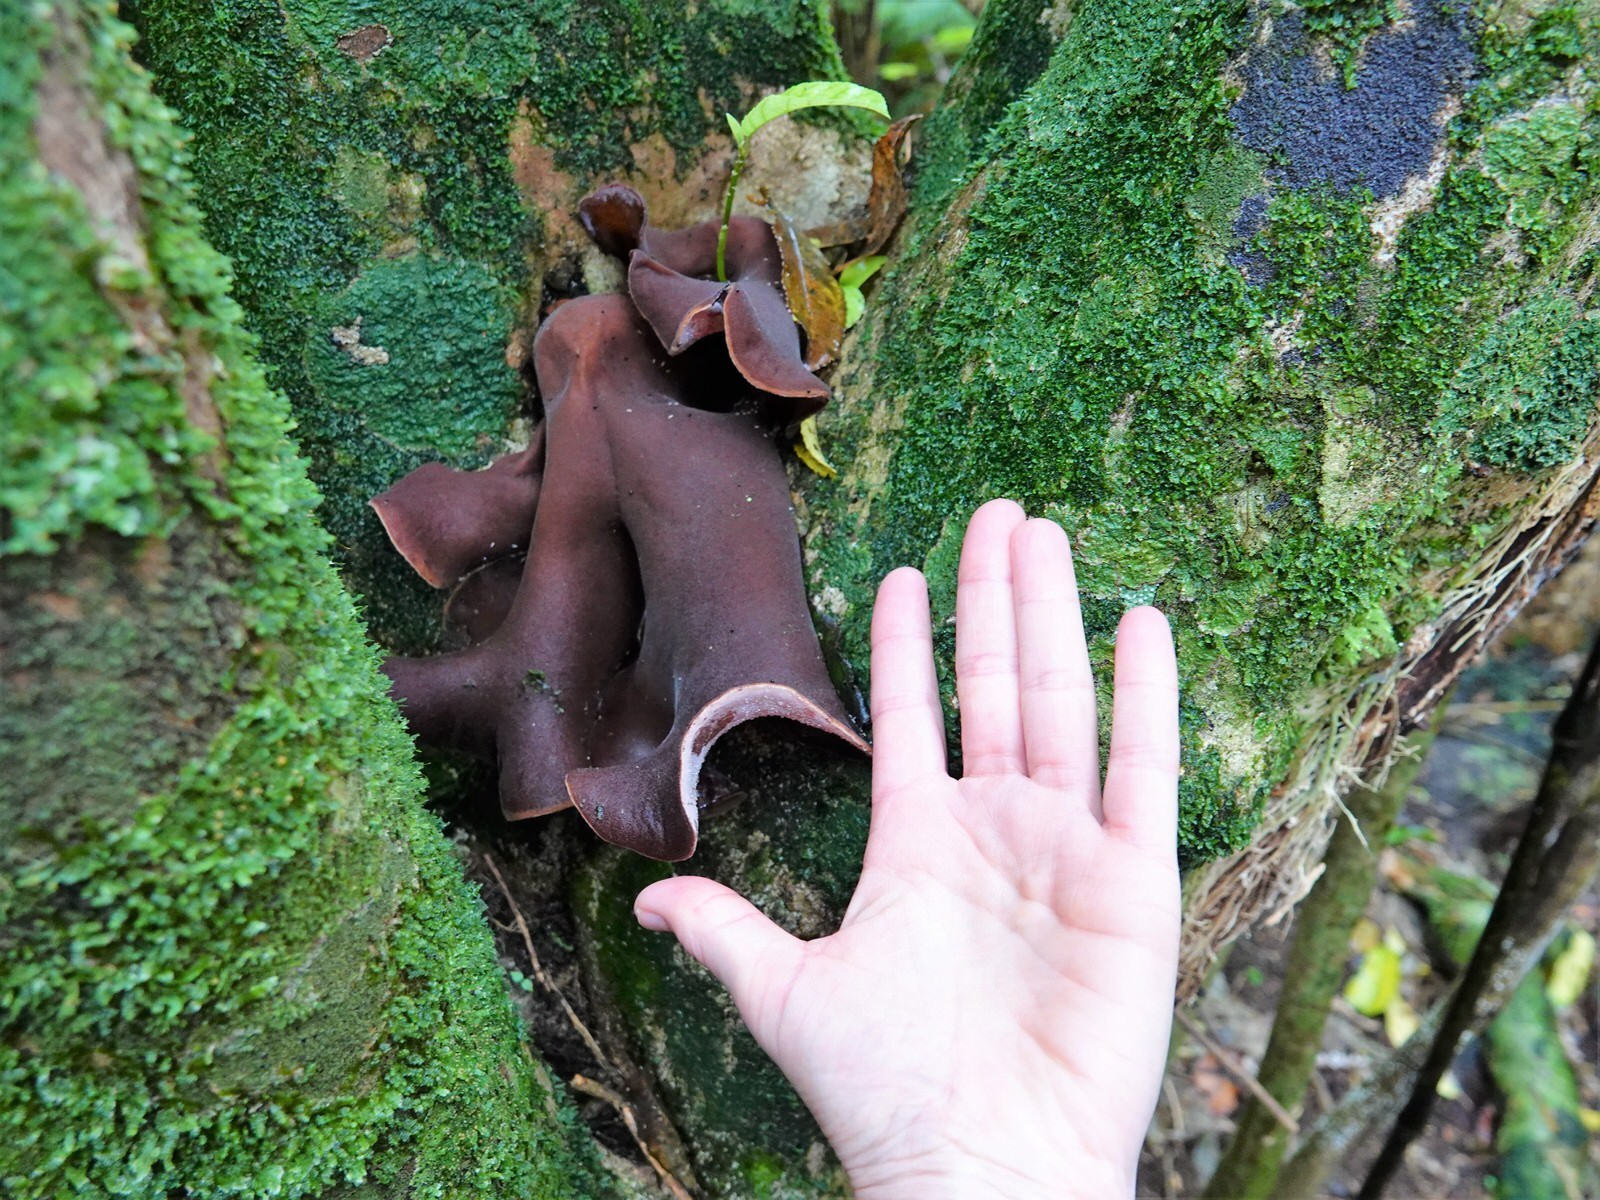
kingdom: Fungi
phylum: Basidiomycota
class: Agaricomycetes
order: Auriculariales
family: Auriculariaceae
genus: Auricularia
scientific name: Auricularia cornea
